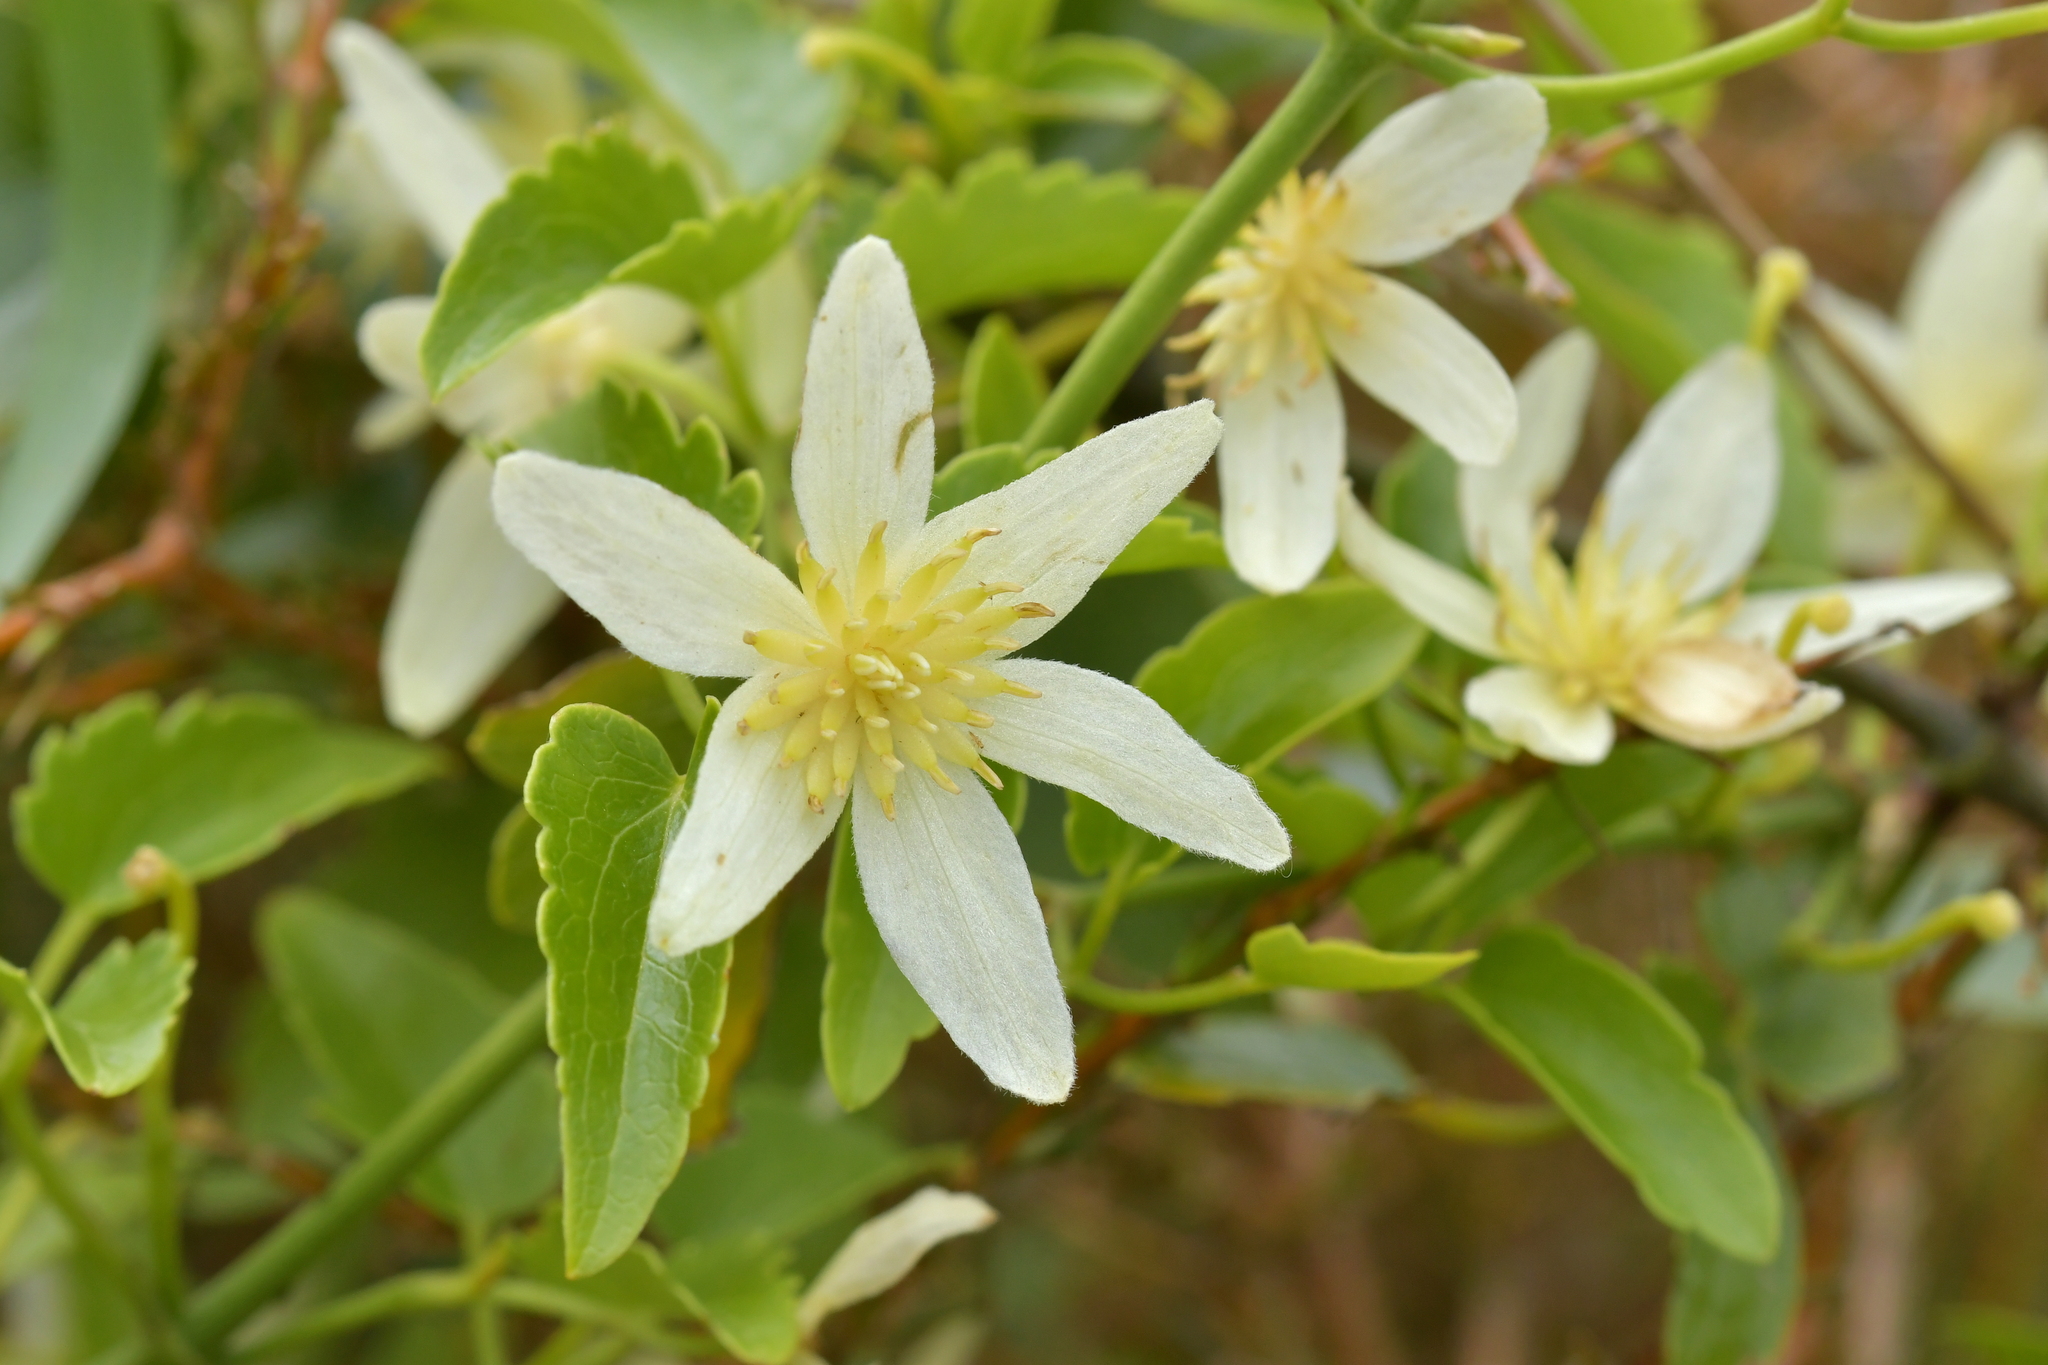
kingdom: Plantae
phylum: Tracheophyta
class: Magnoliopsida
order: Ranunculales
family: Ranunculaceae
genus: Clematis
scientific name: Clematis forsteri
